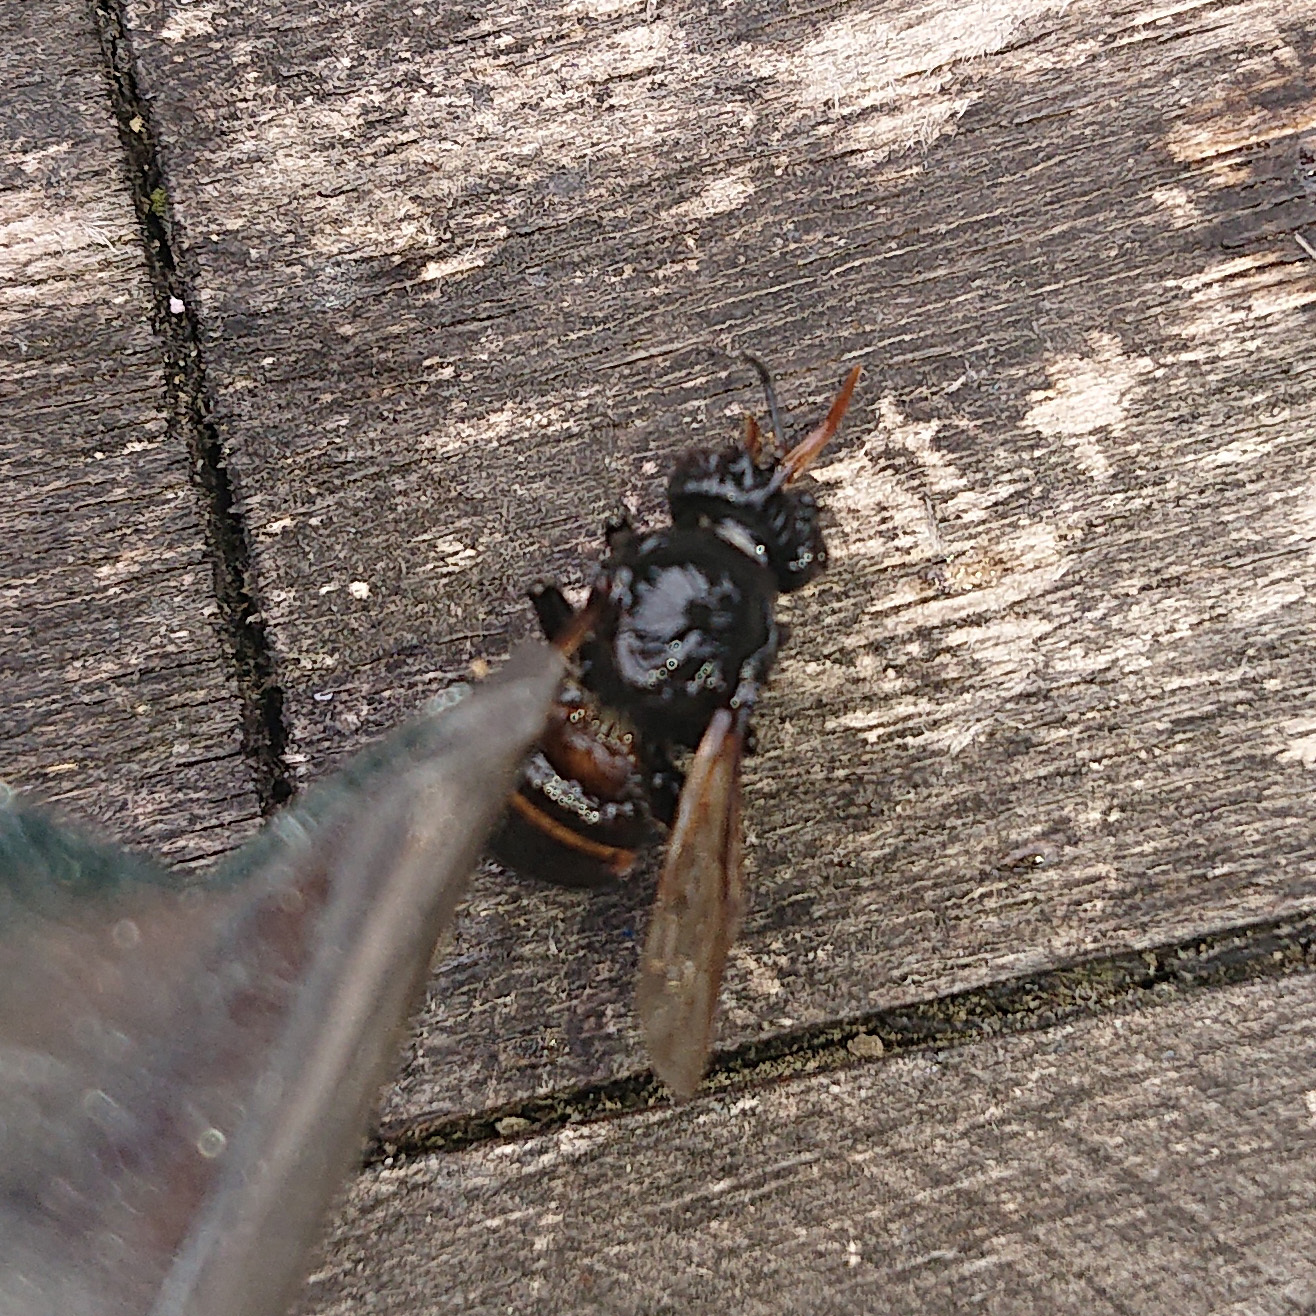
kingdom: Animalia
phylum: Arthropoda
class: Insecta
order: Hymenoptera
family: Apidae
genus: Apis
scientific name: Apis mellifera
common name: Honey bee
